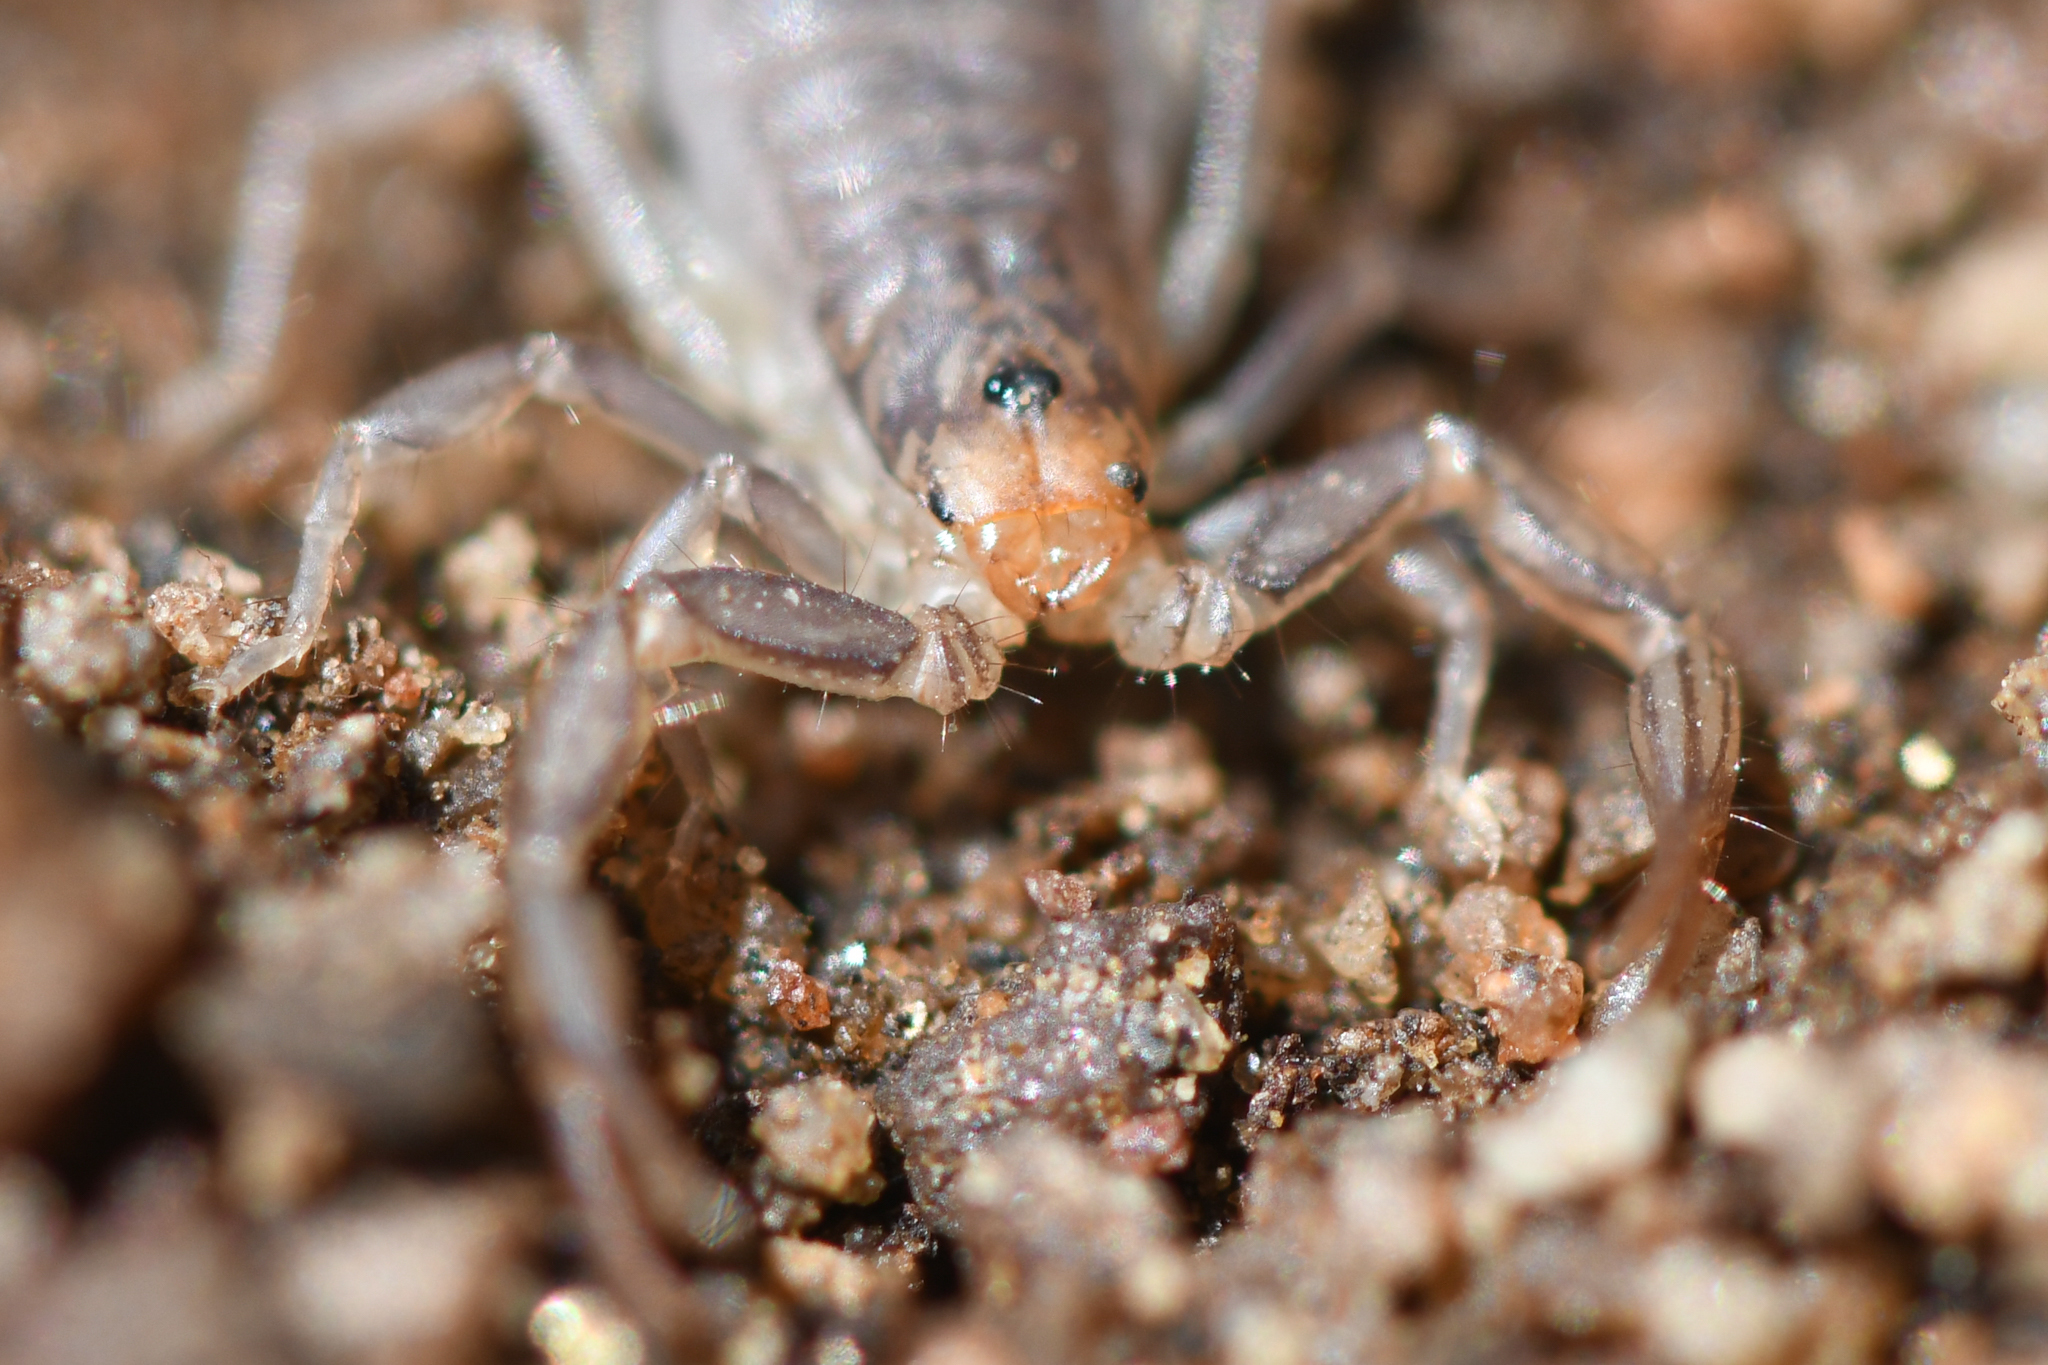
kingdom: Animalia
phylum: Arthropoda
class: Arachnida
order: Scorpiones
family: Vaejovidae
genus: Paruroctonus
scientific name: Paruroctonus silvestrii
